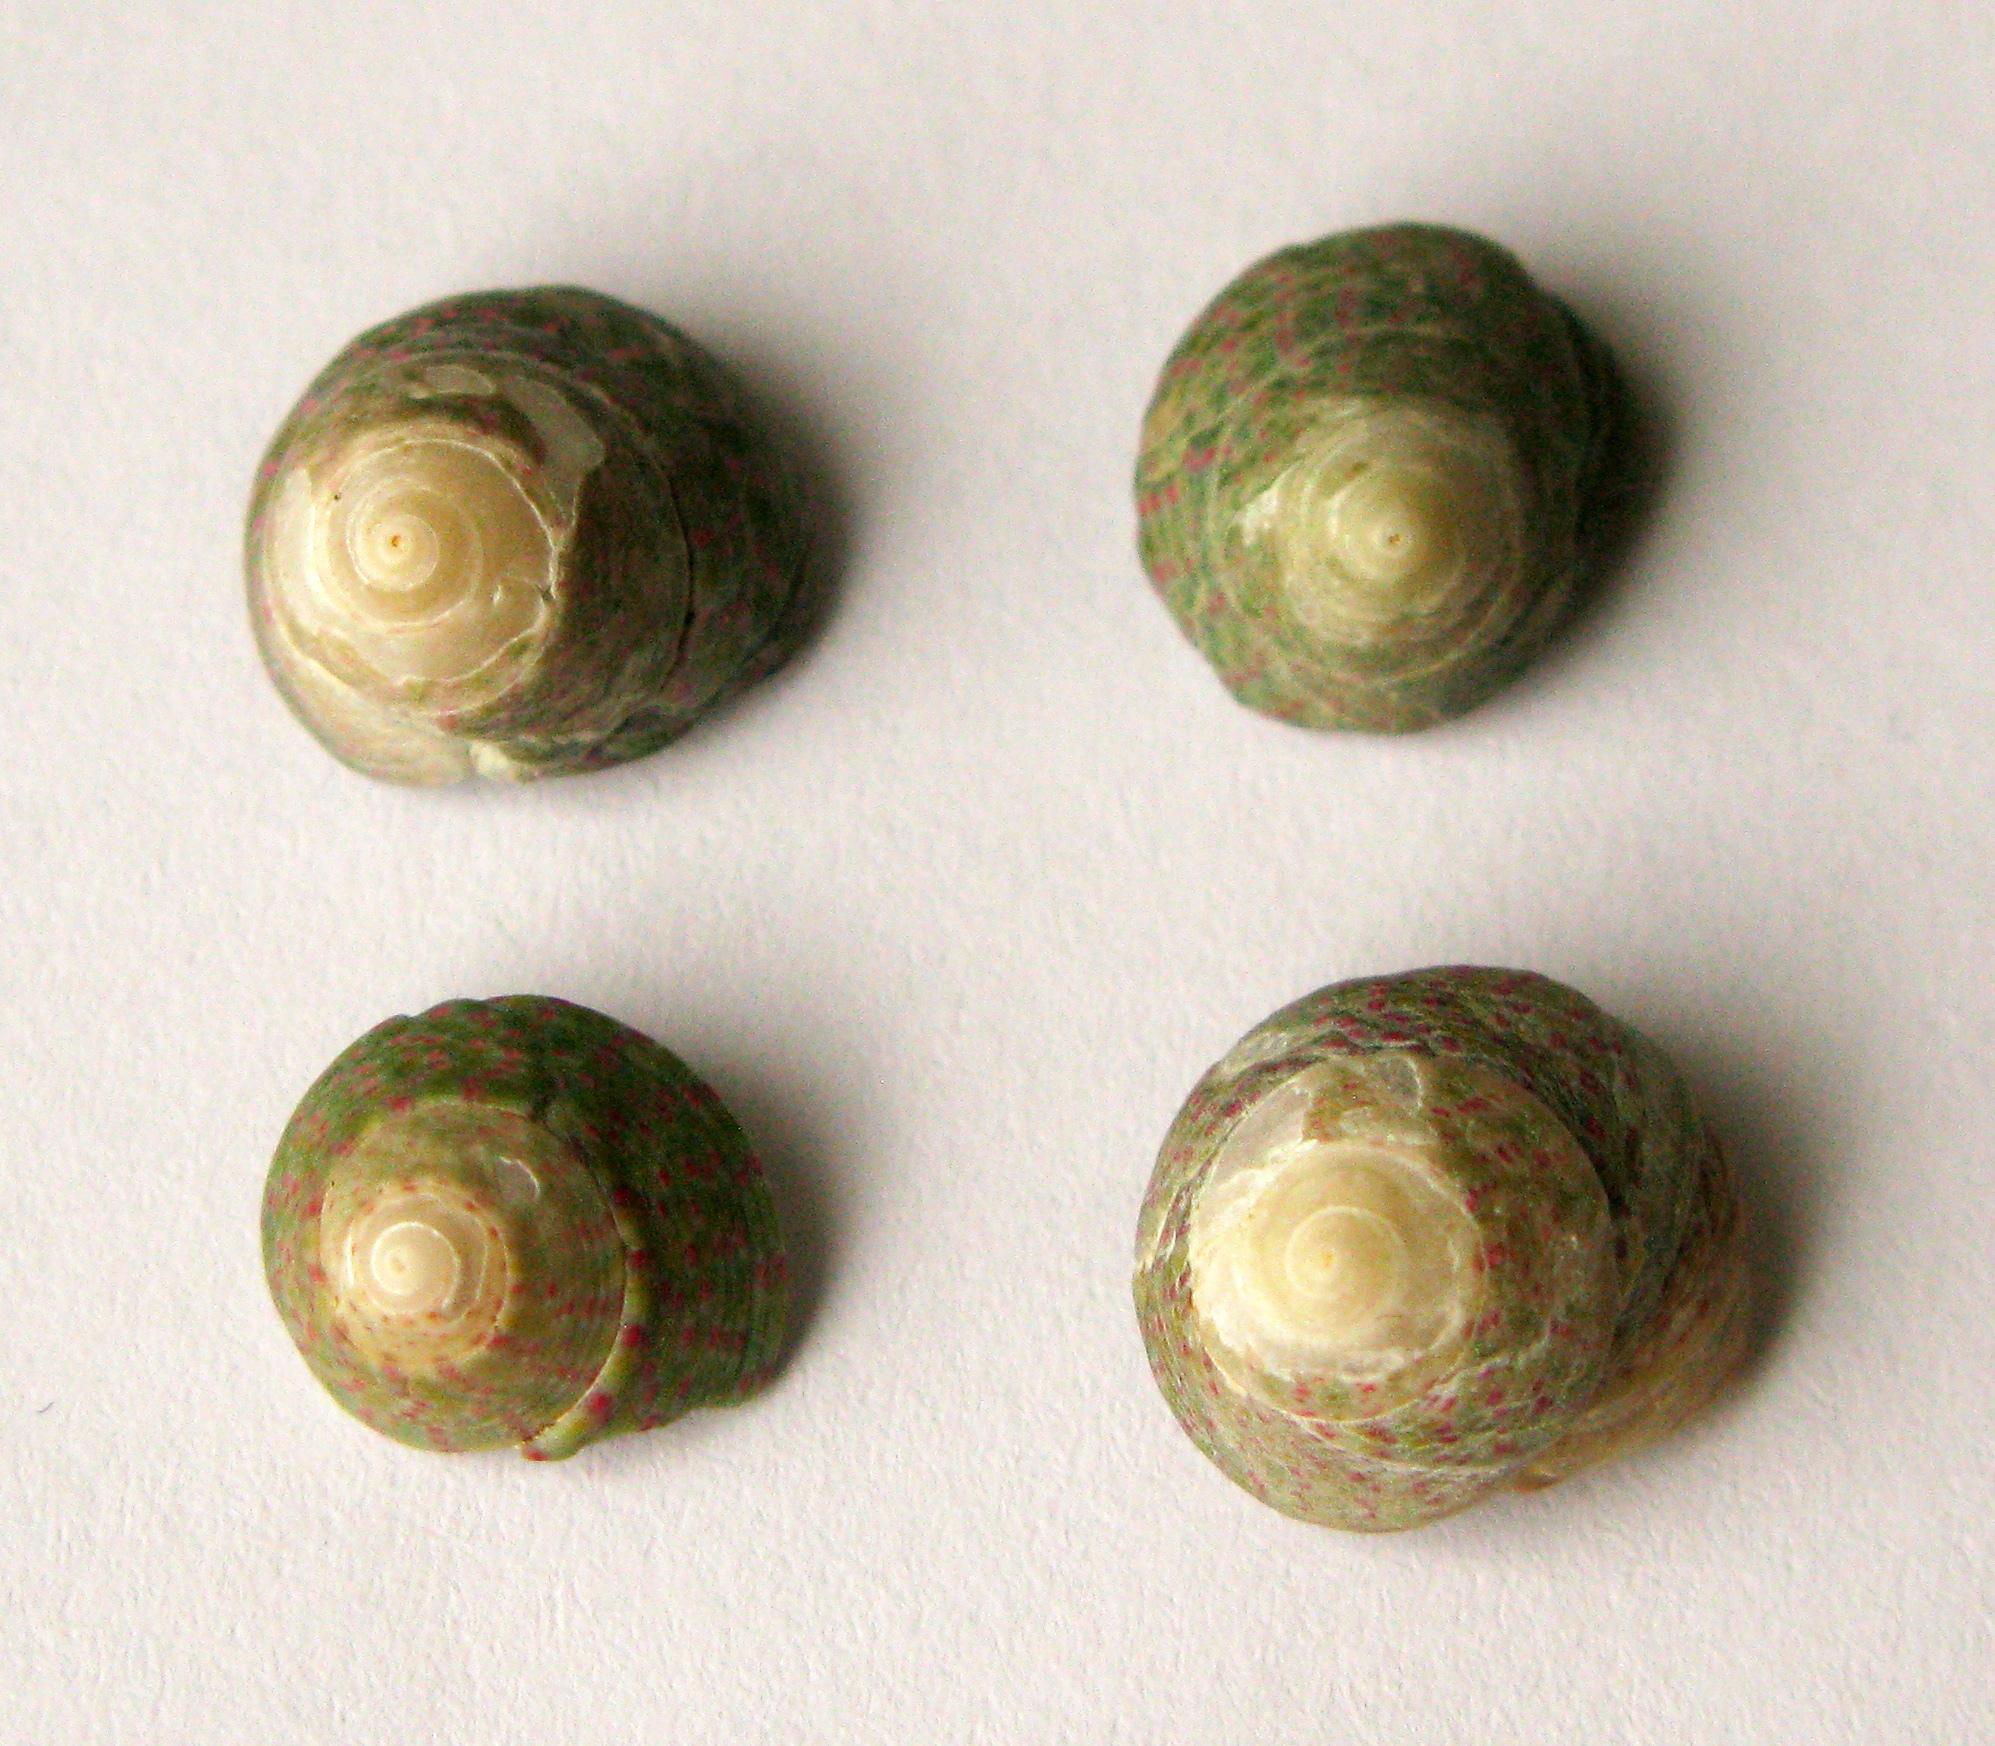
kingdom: Animalia
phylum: Mollusca
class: Gastropoda
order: Trochida
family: Trochidae
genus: Steromphala
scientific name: Steromphala divaricata
